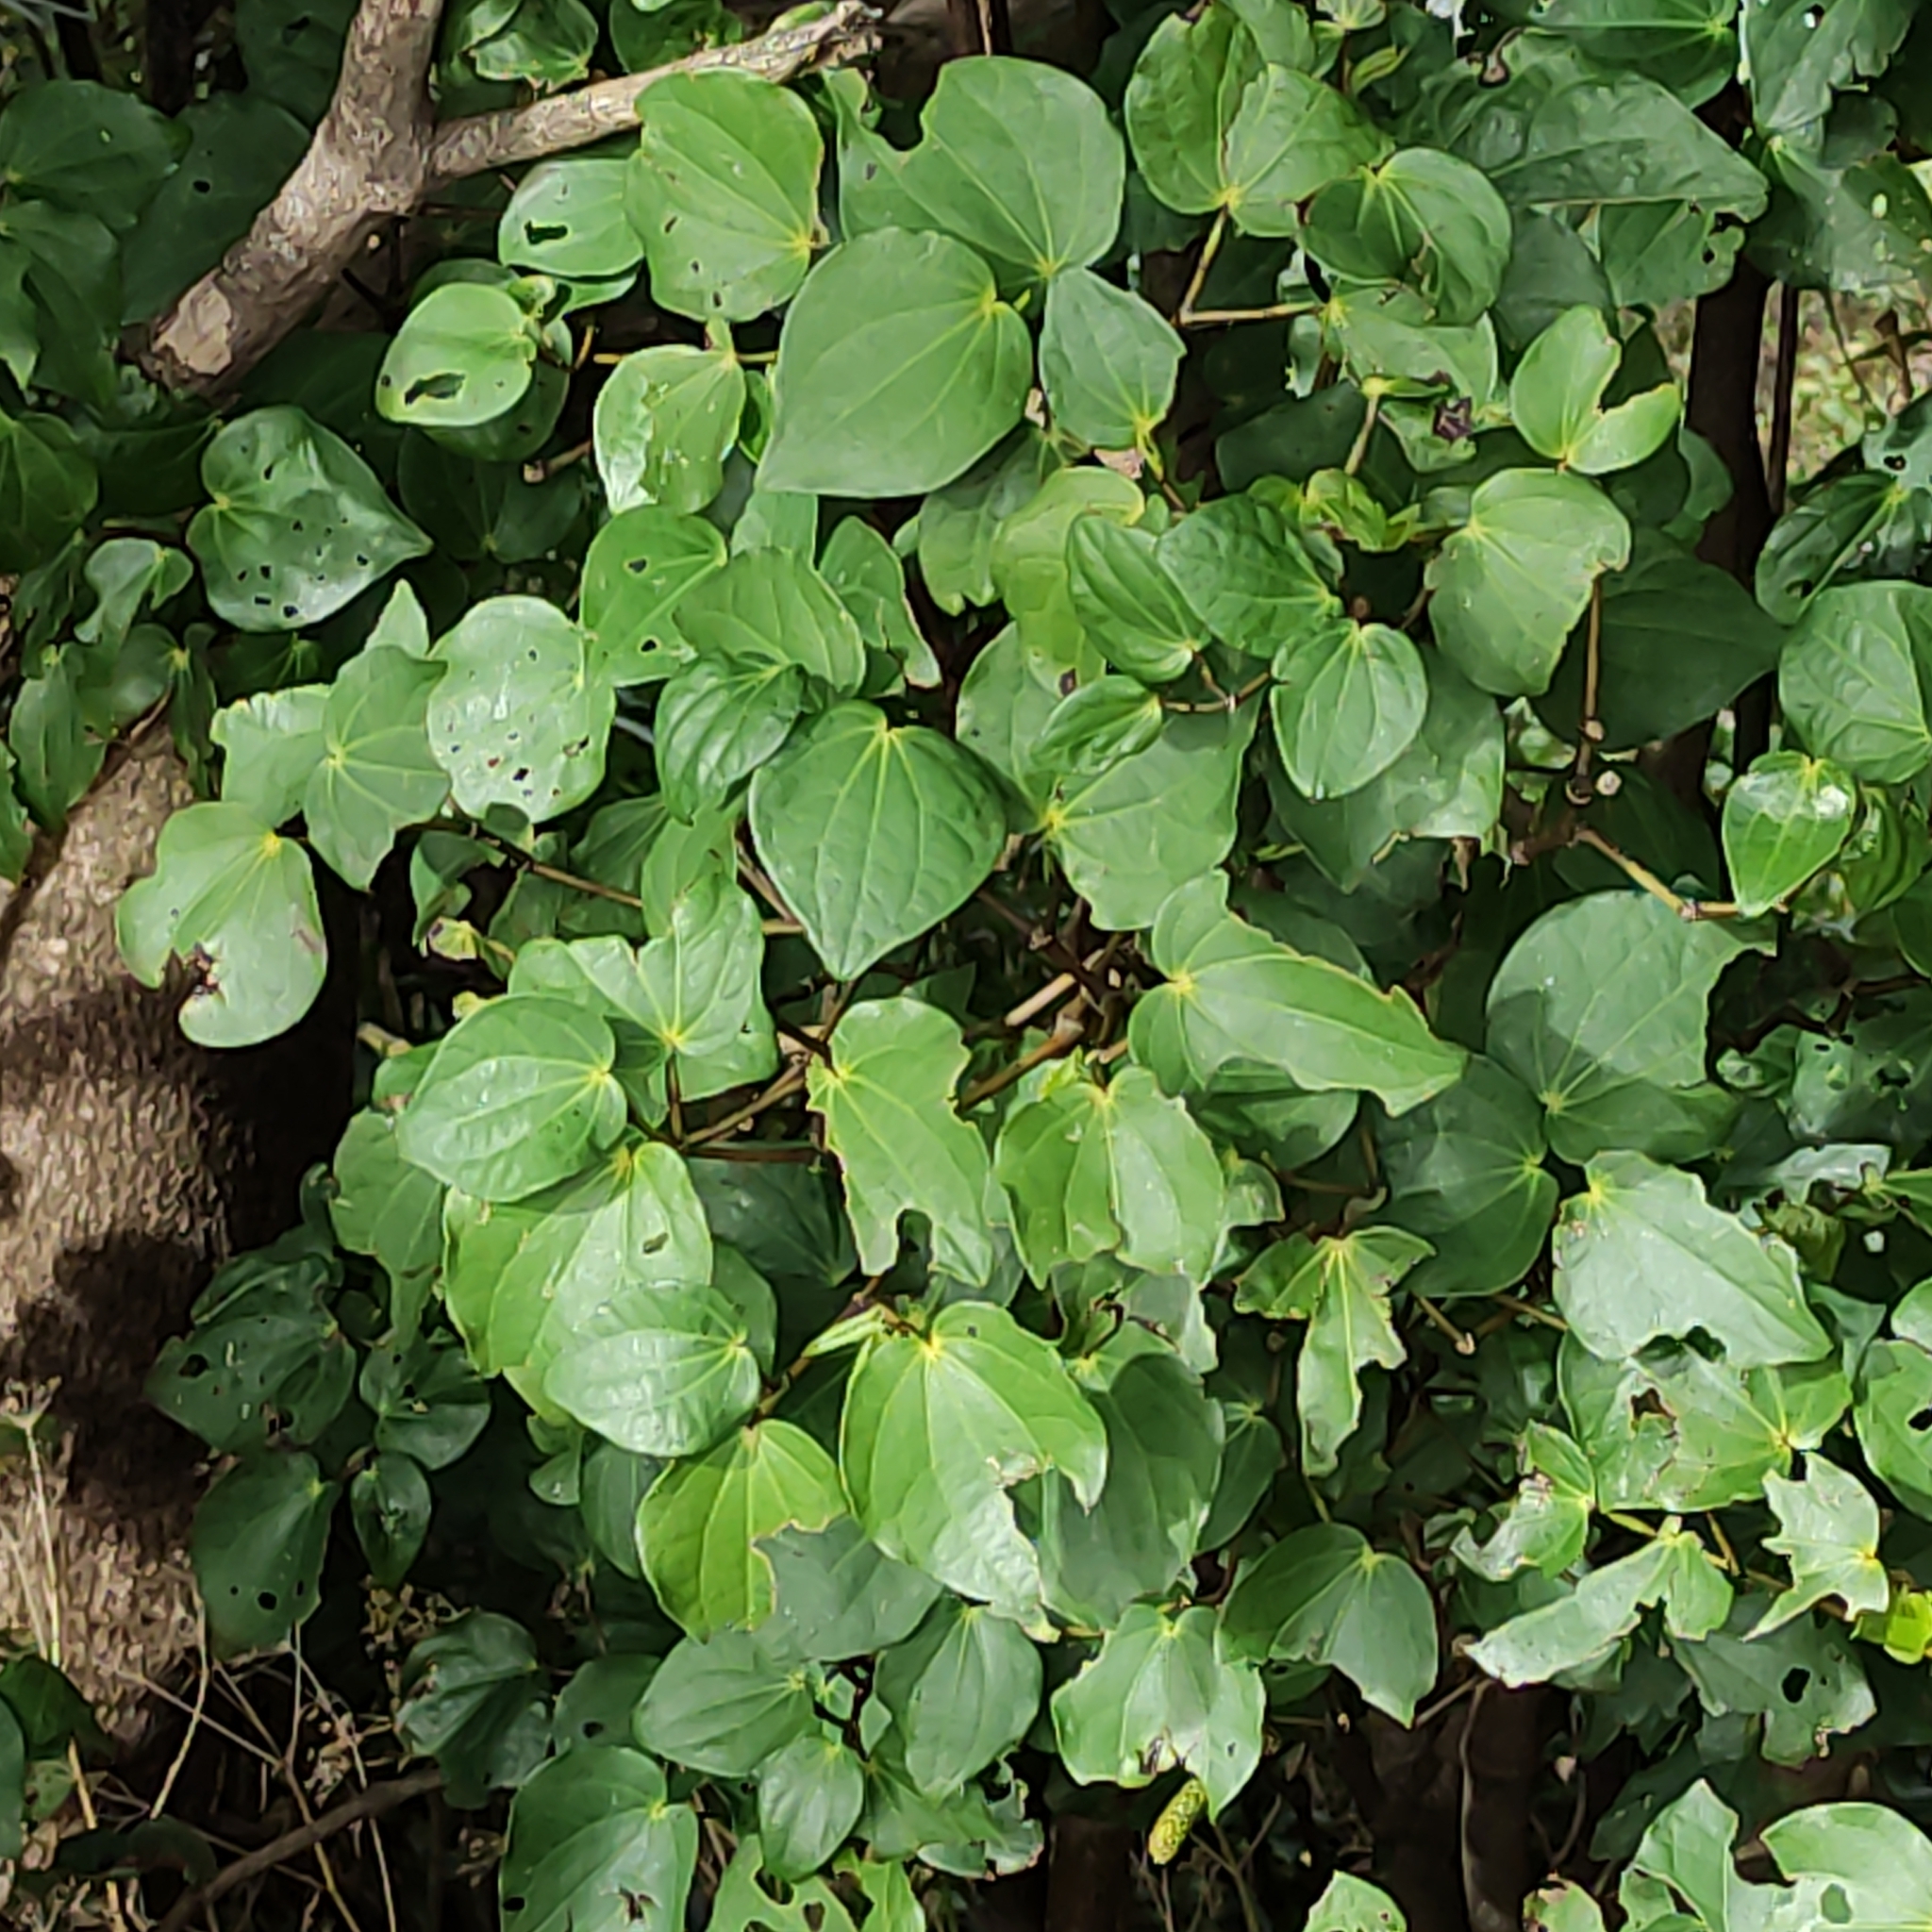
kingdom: Plantae
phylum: Tracheophyta
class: Magnoliopsida
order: Piperales
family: Piperaceae
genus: Macropiper
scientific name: Macropiper excelsum
